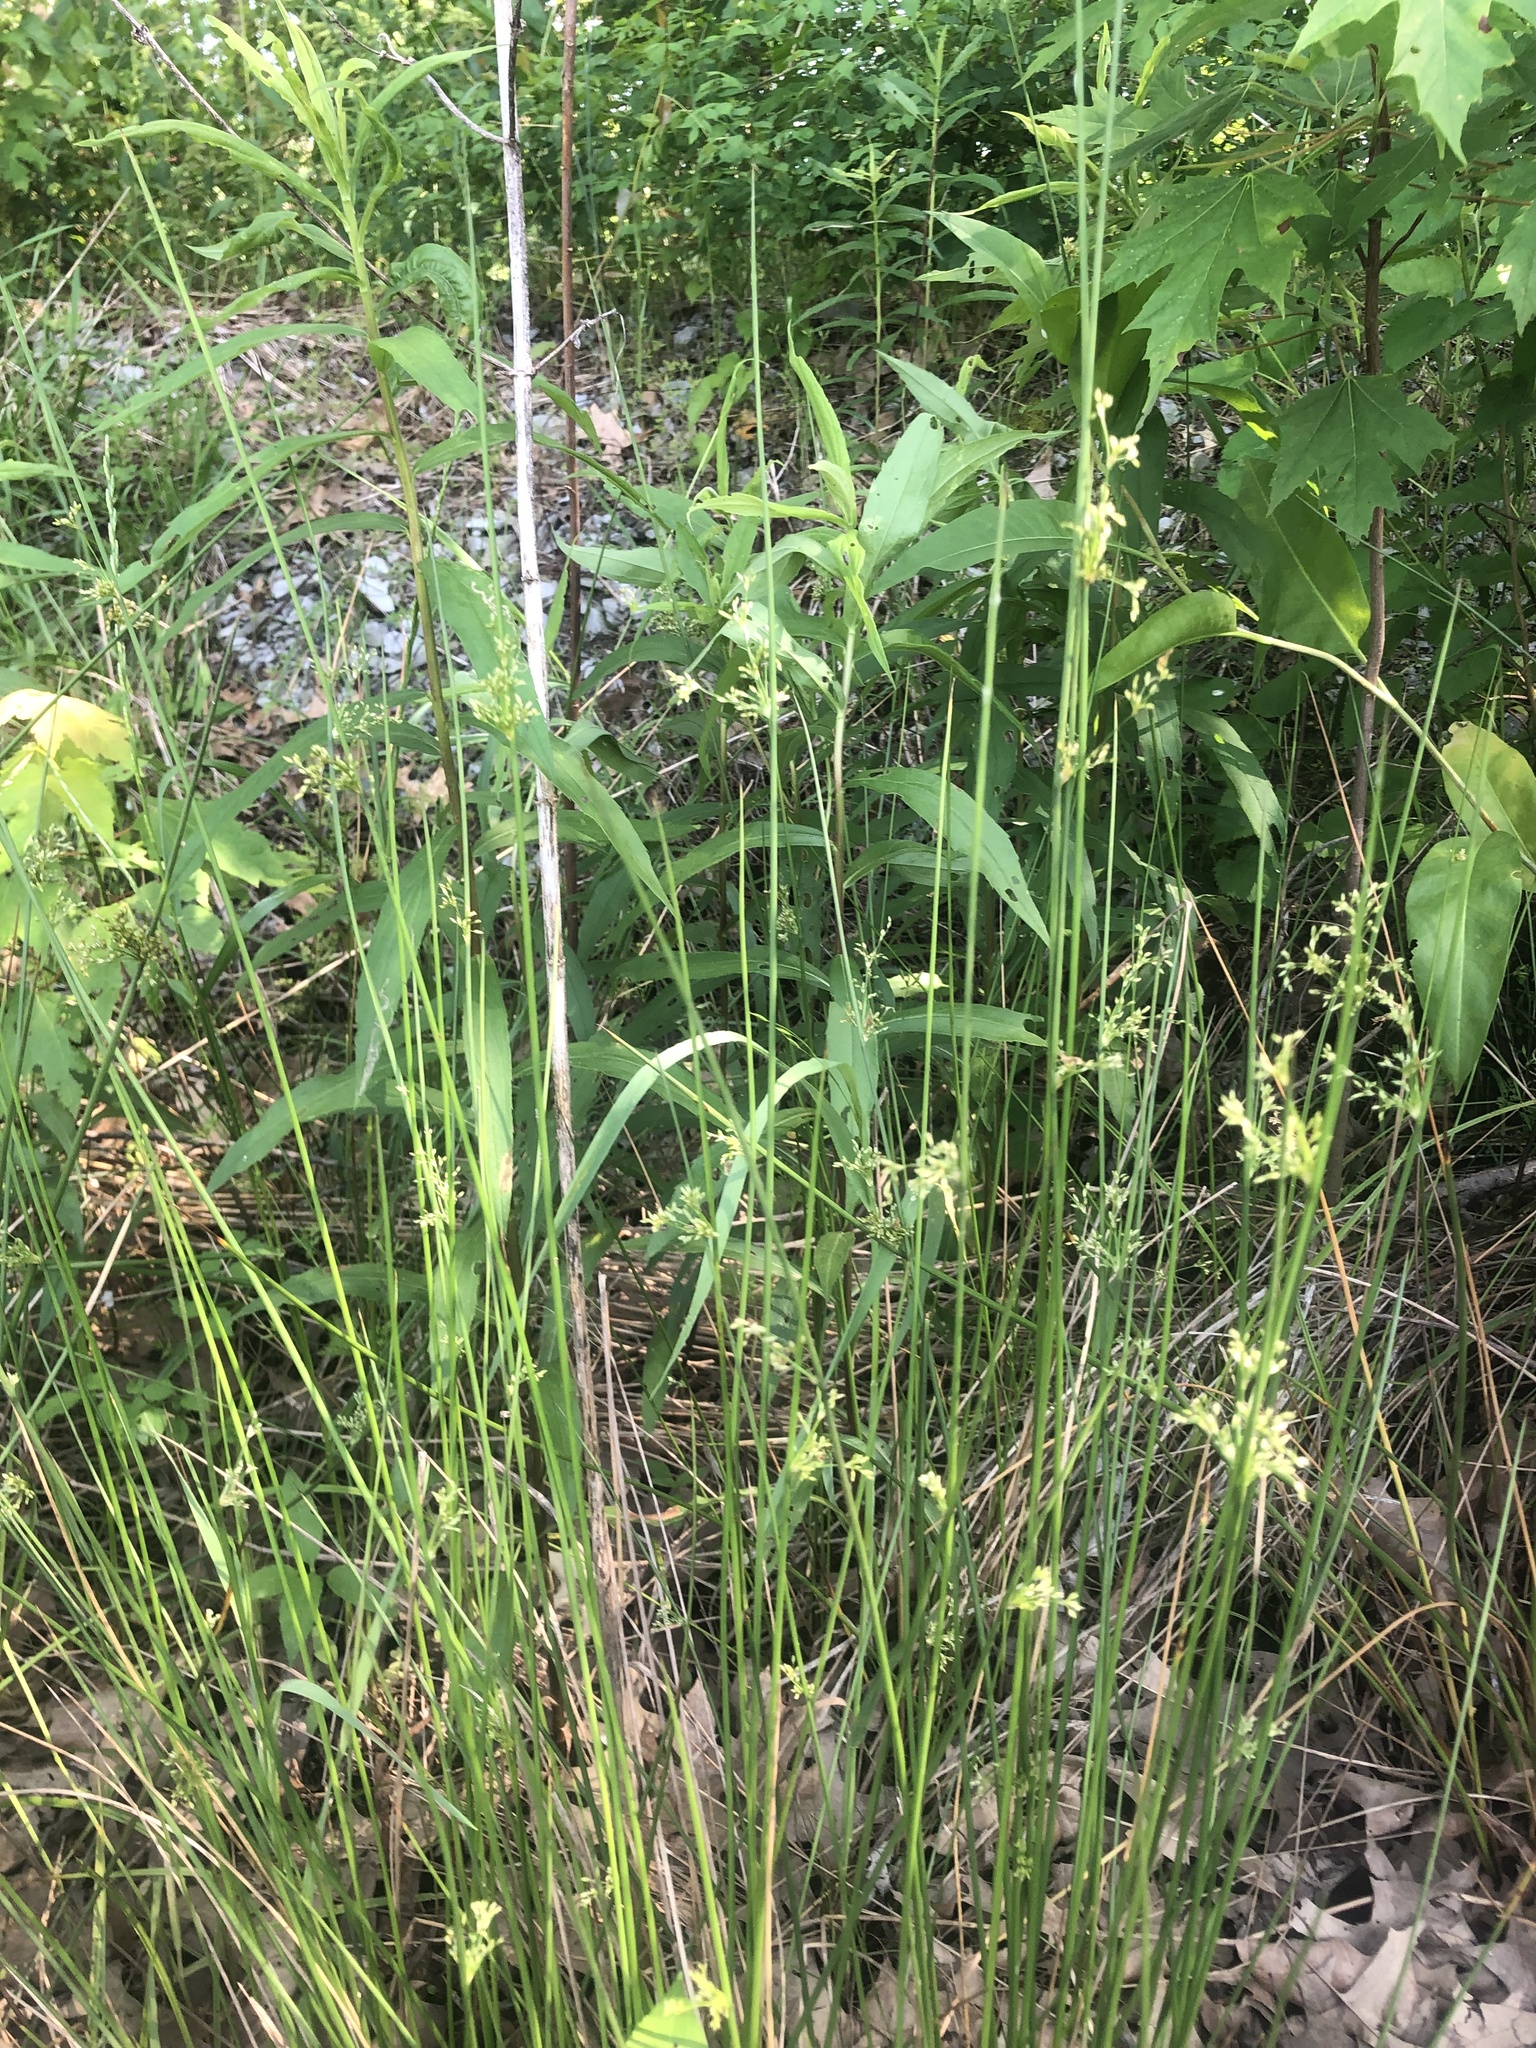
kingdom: Plantae
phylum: Tracheophyta
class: Liliopsida
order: Poales
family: Juncaceae
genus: Juncus
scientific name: Juncus effusus
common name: Soft rush
